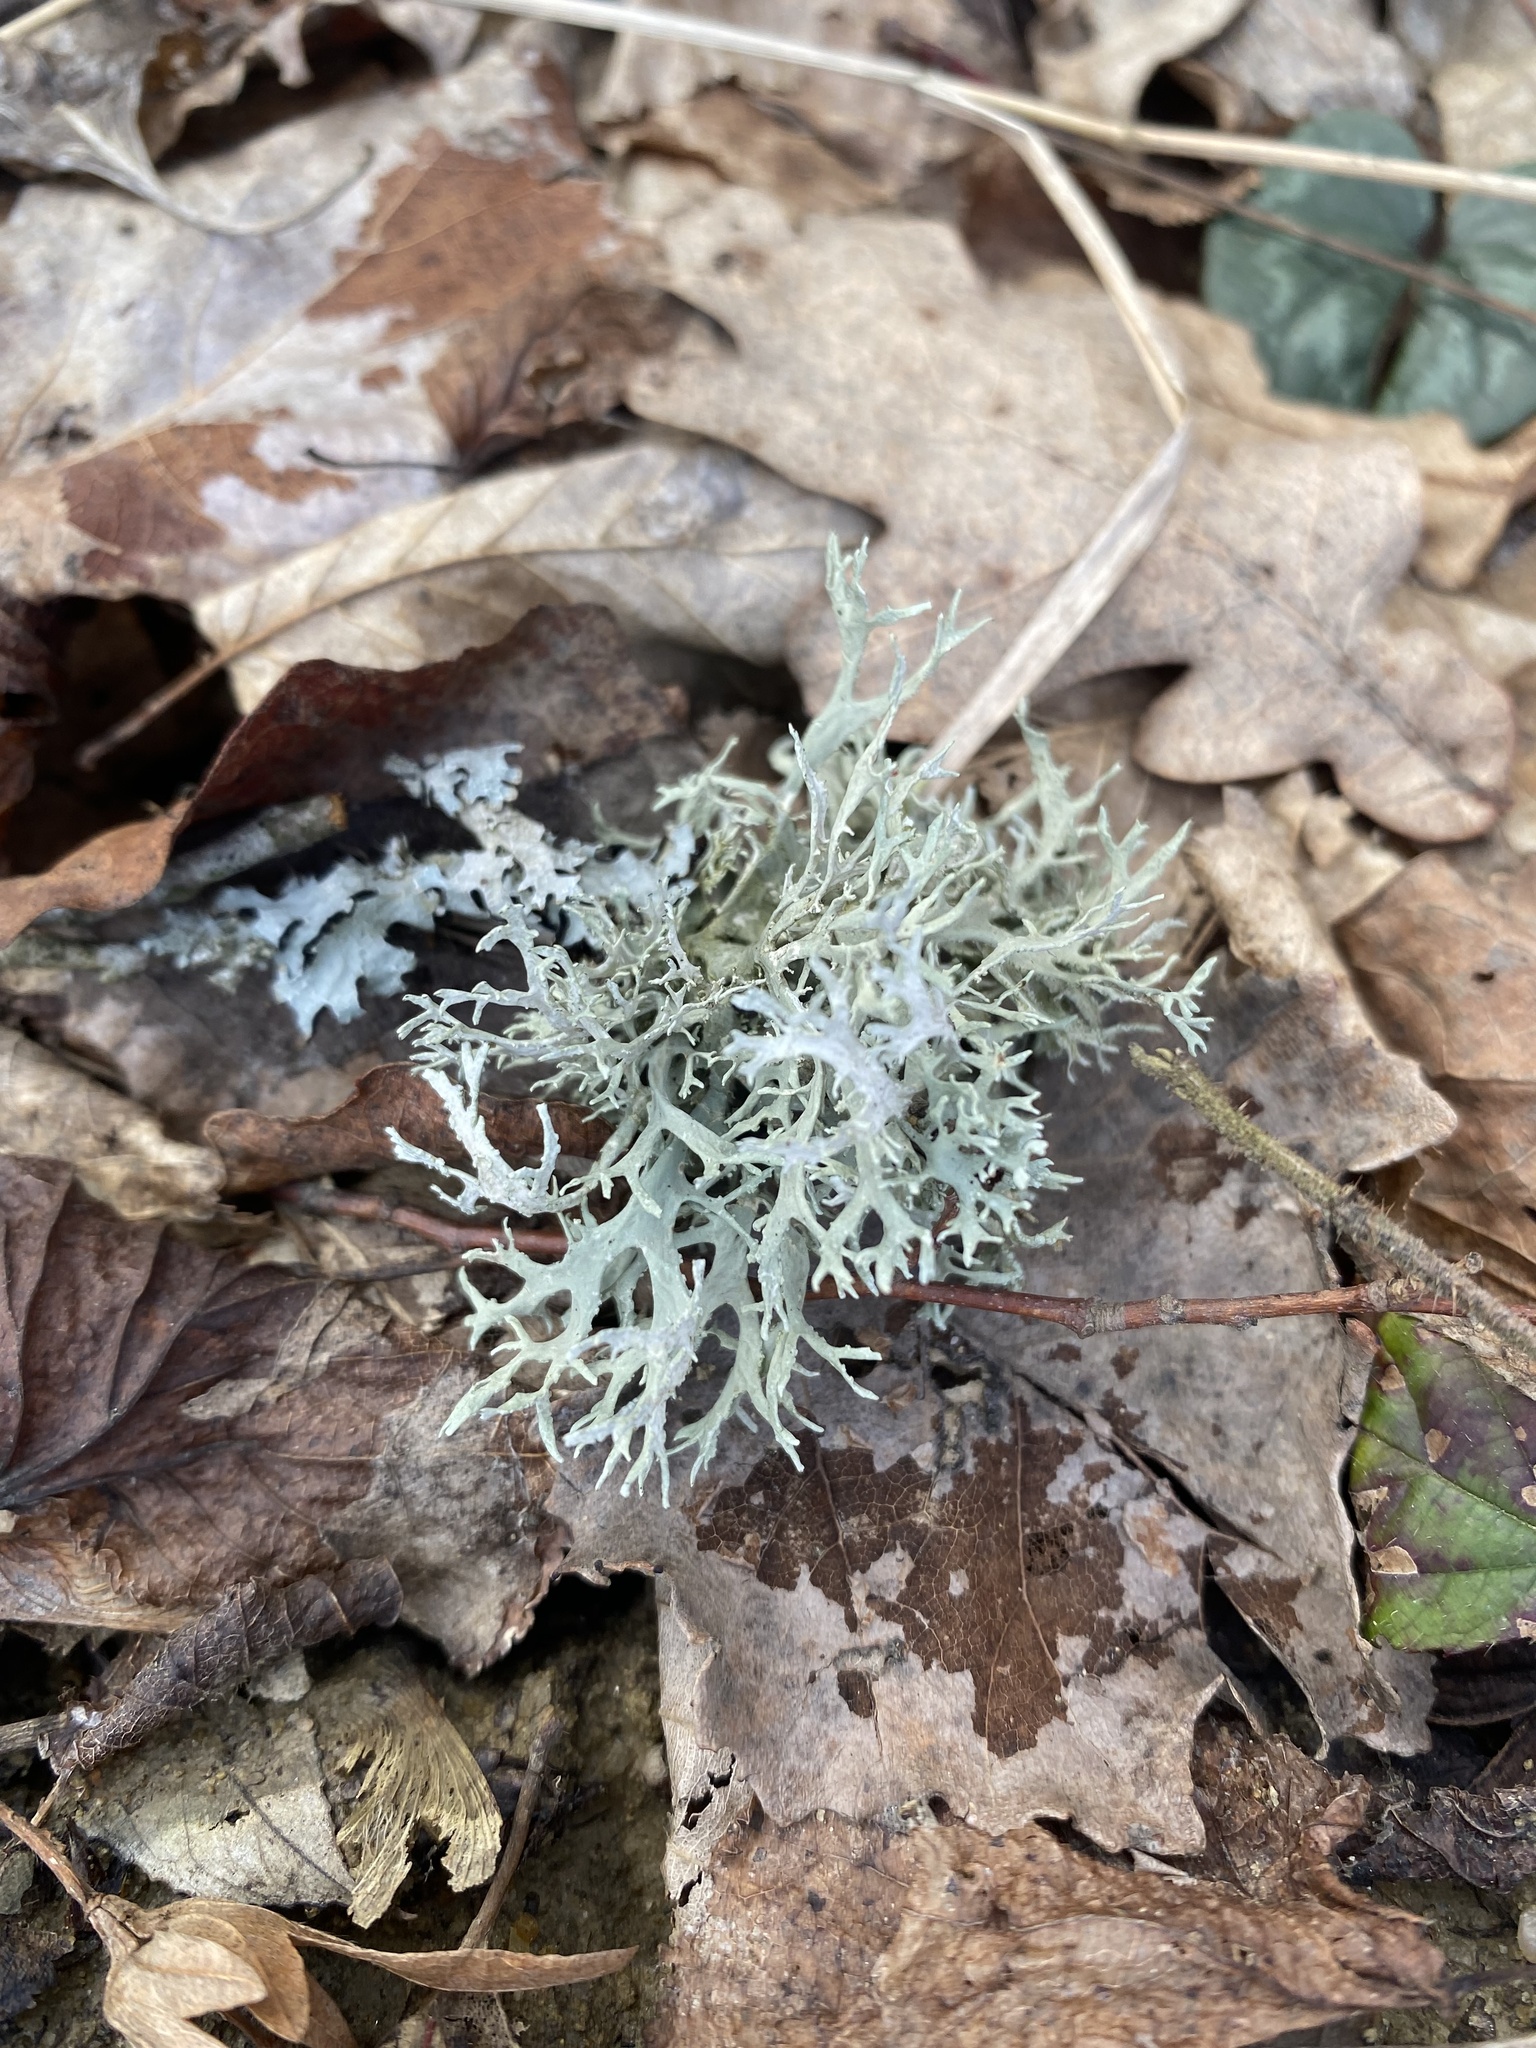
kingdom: Fungi
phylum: Ascomycota
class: Lecanoromycetes
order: Lecanorales
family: Parmeliaceae
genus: Evernia
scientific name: Evernia prunastri
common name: Oak moss
